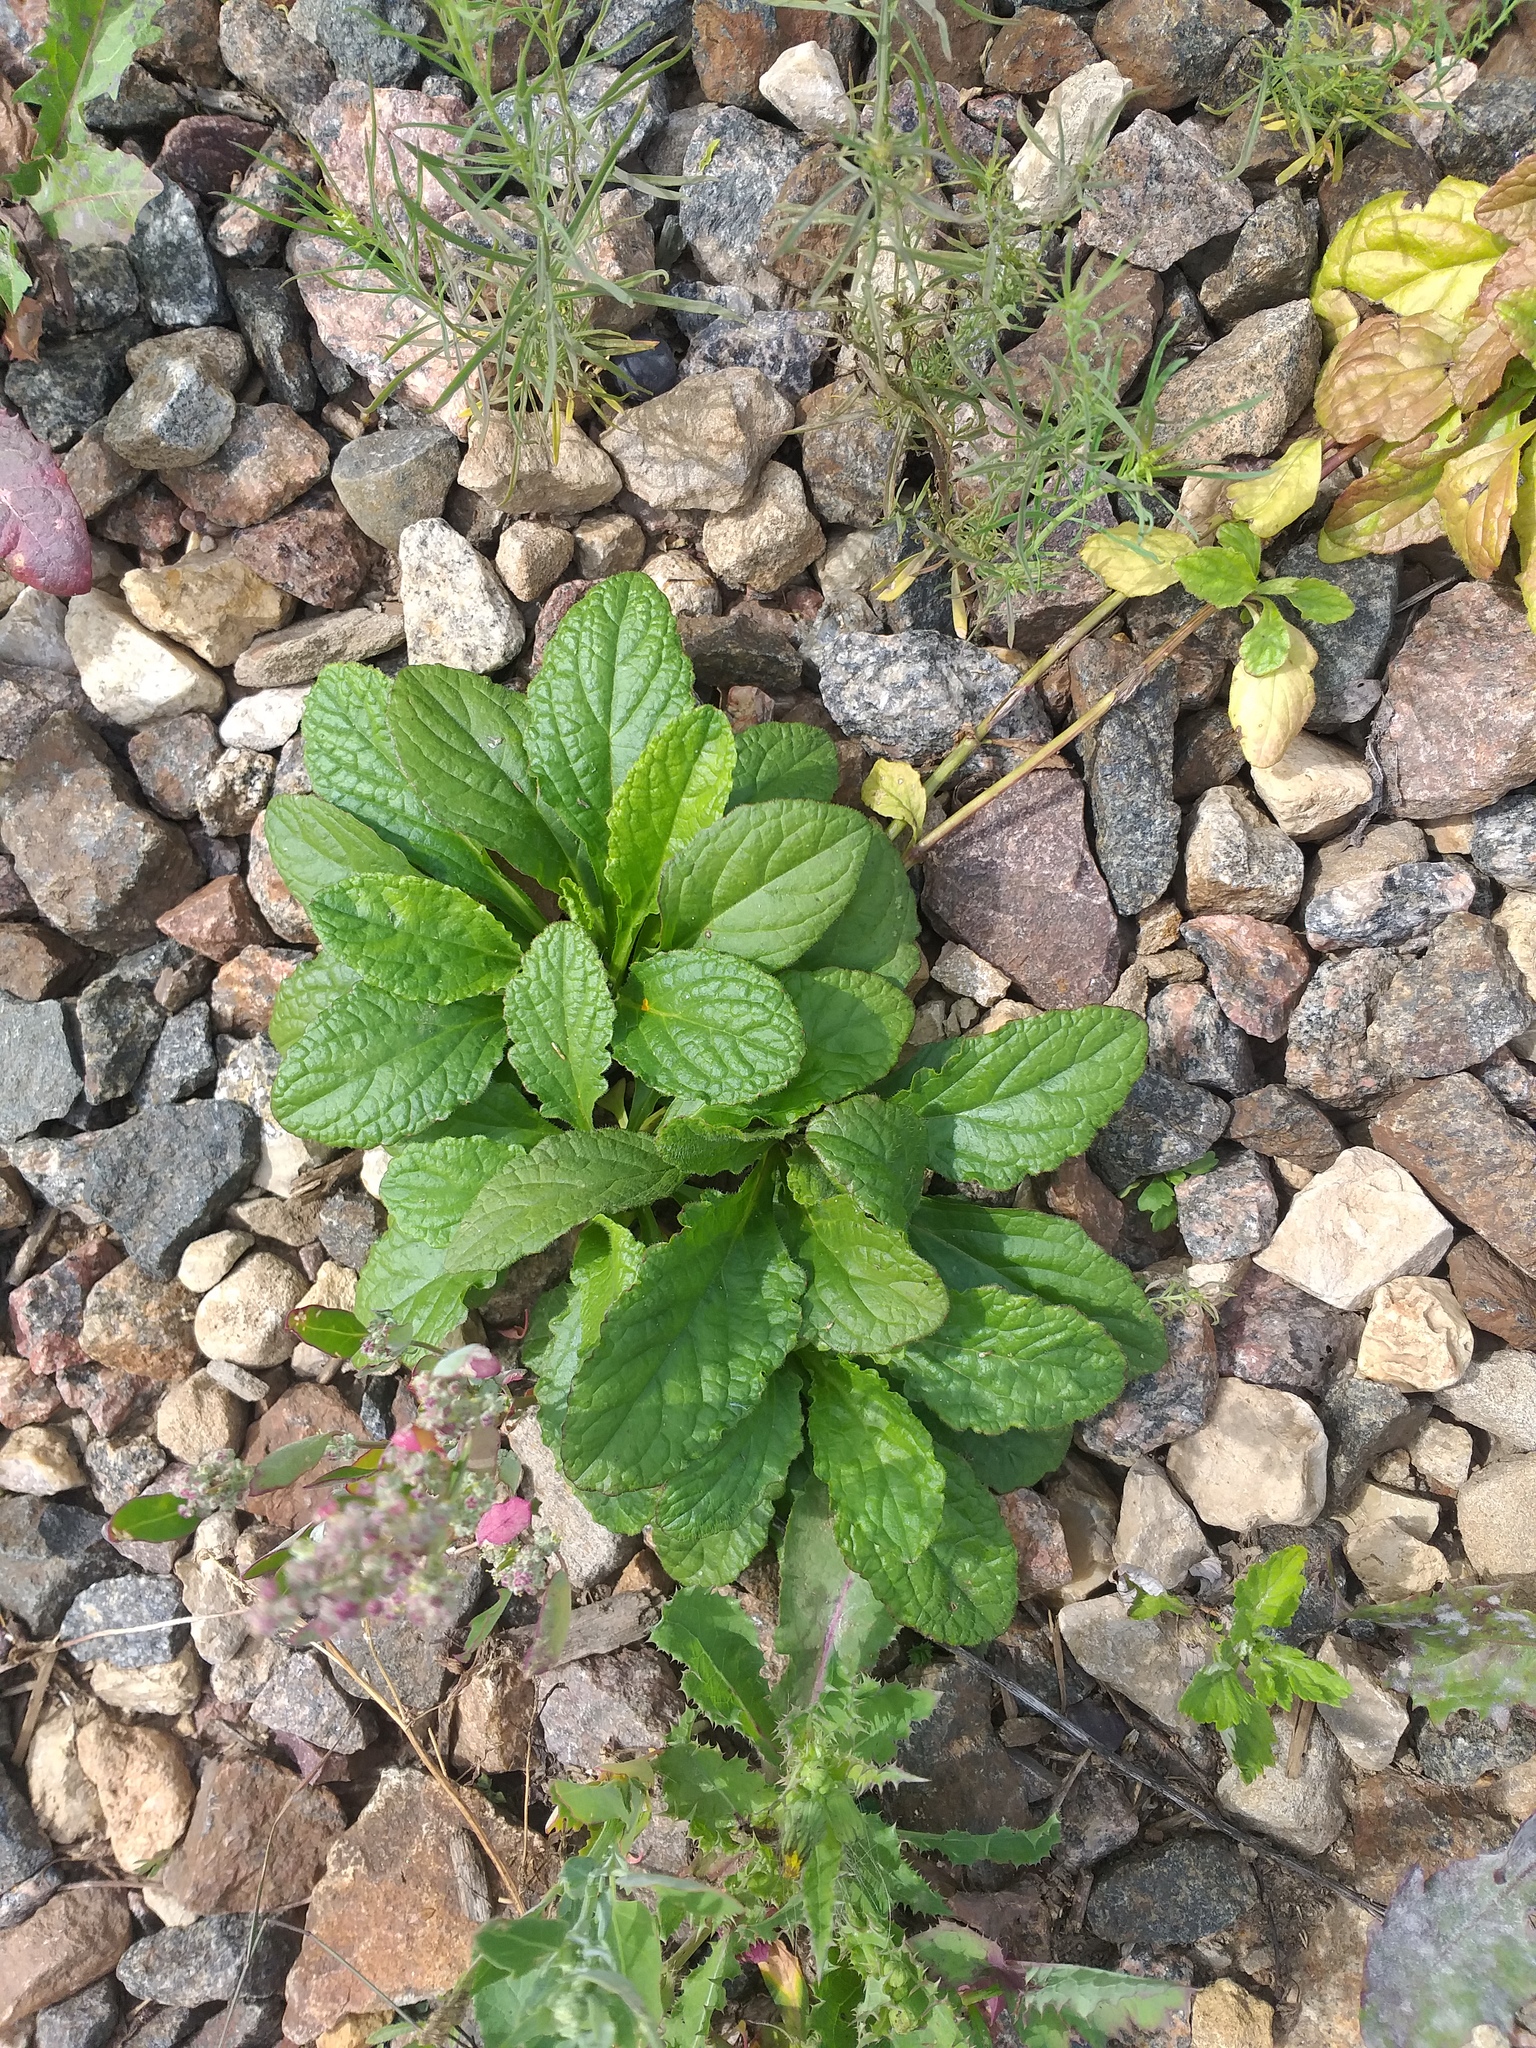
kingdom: Plantae
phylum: Tracheophyta
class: Magnoliopsida
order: Lamiales
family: Lamiaceae
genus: Ajuga
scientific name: Ajuga reptans
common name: Bugle
